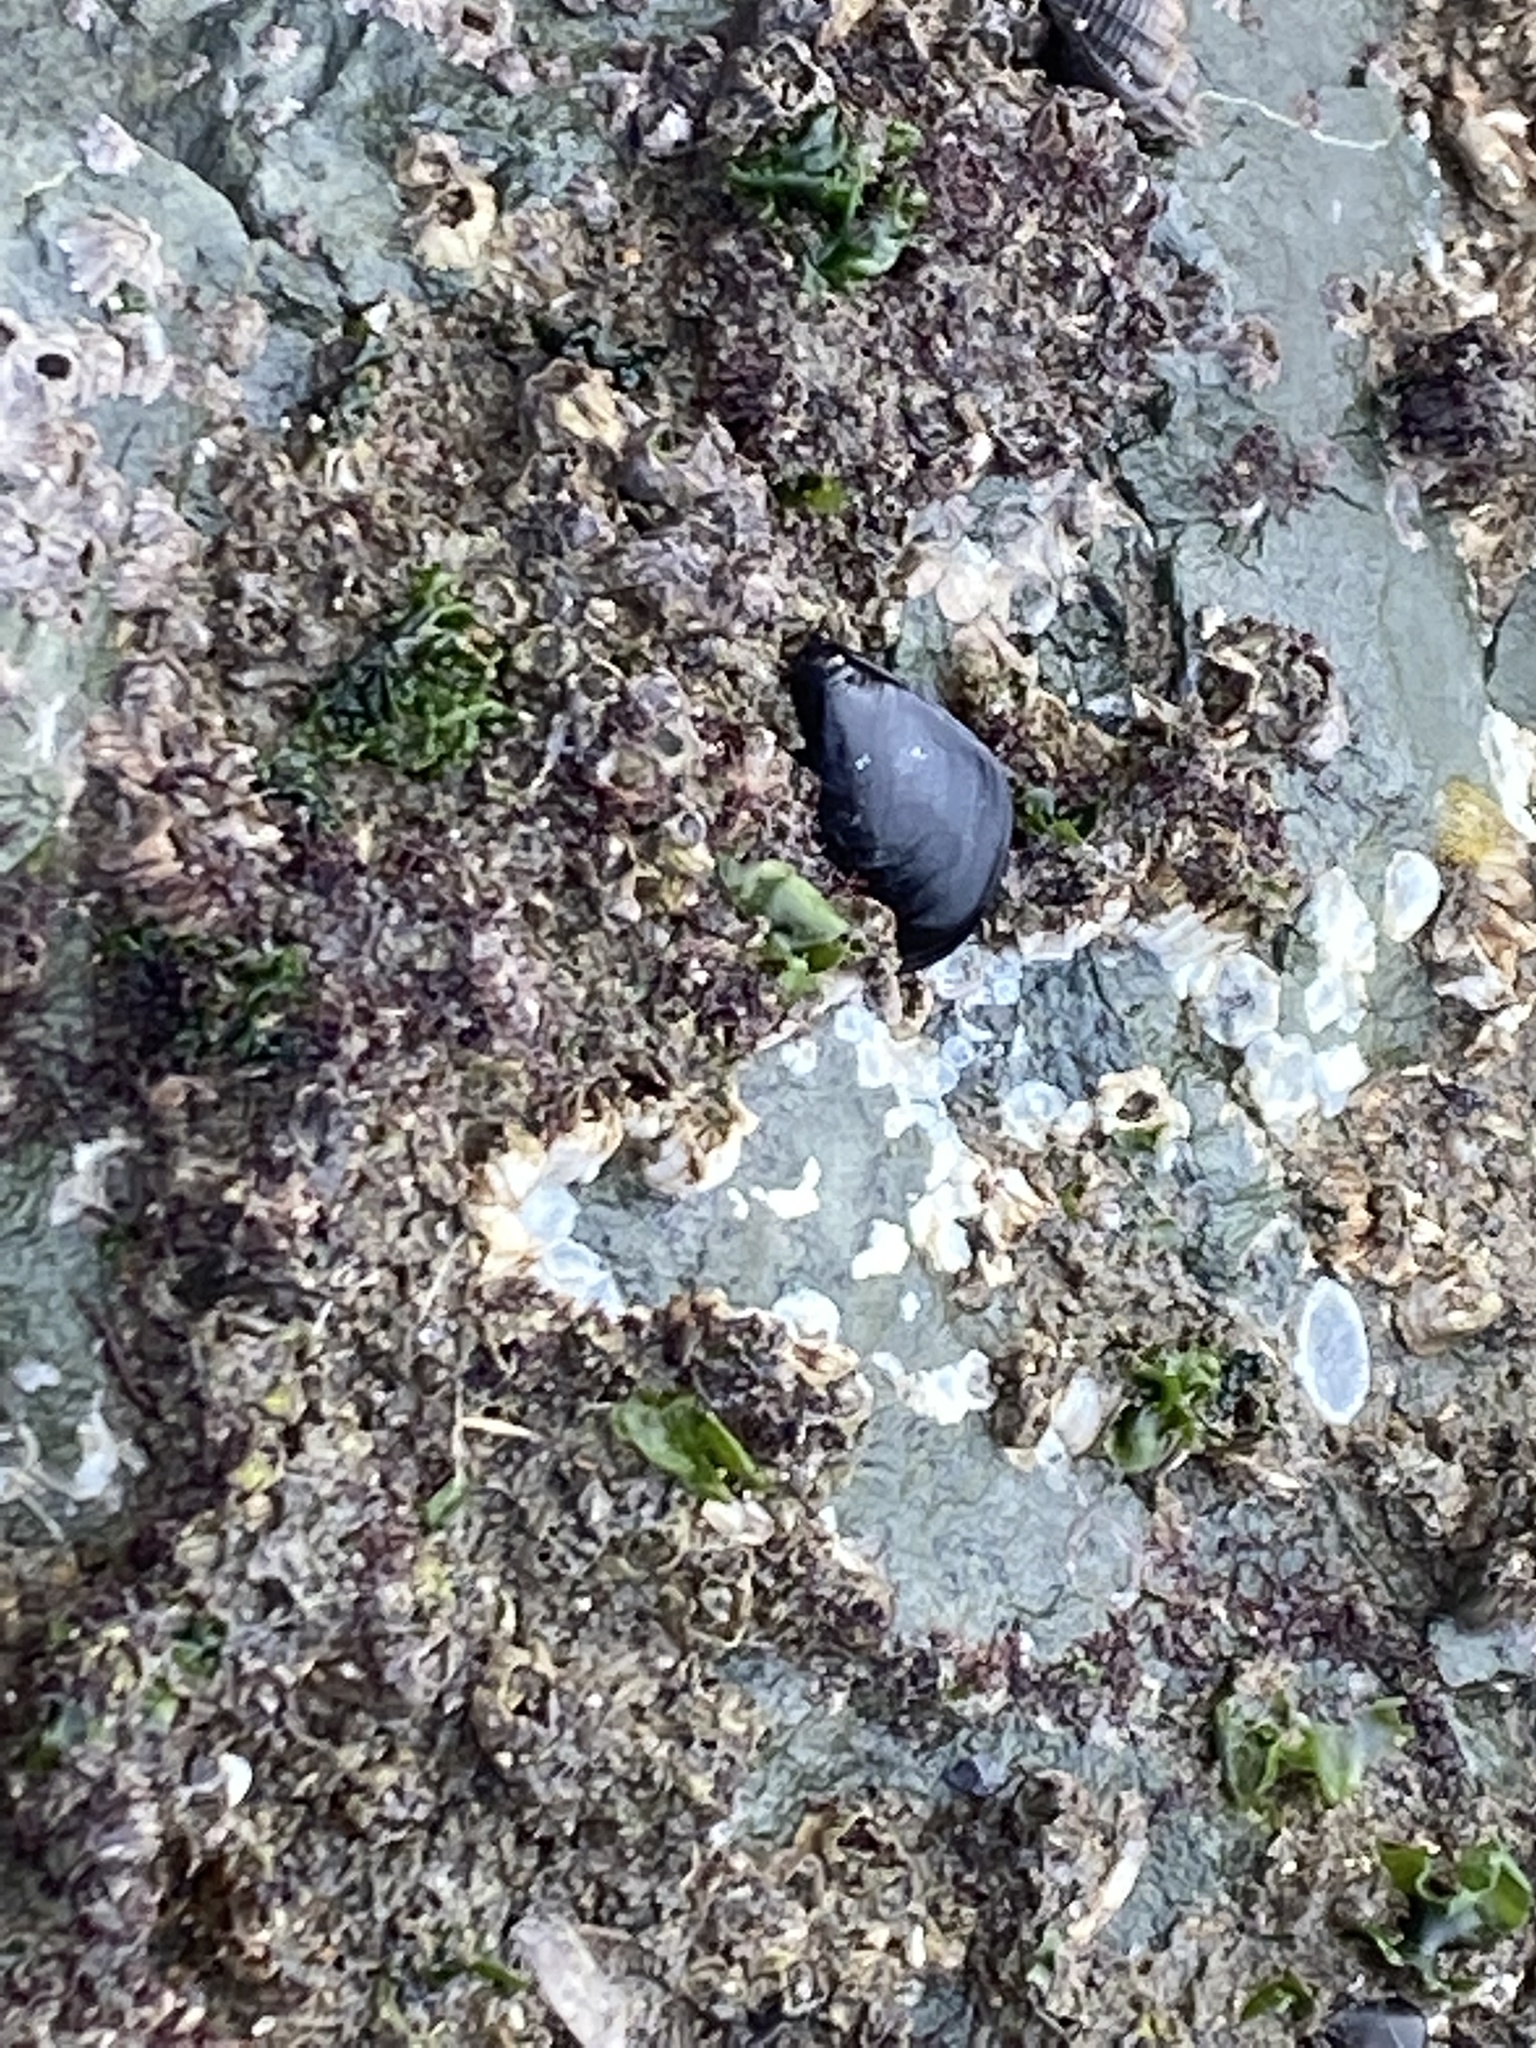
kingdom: Animalia
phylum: Mollusca
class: Bivalvia
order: Mytilida
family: Mytilidae
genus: Mytilus
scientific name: Mytilus
